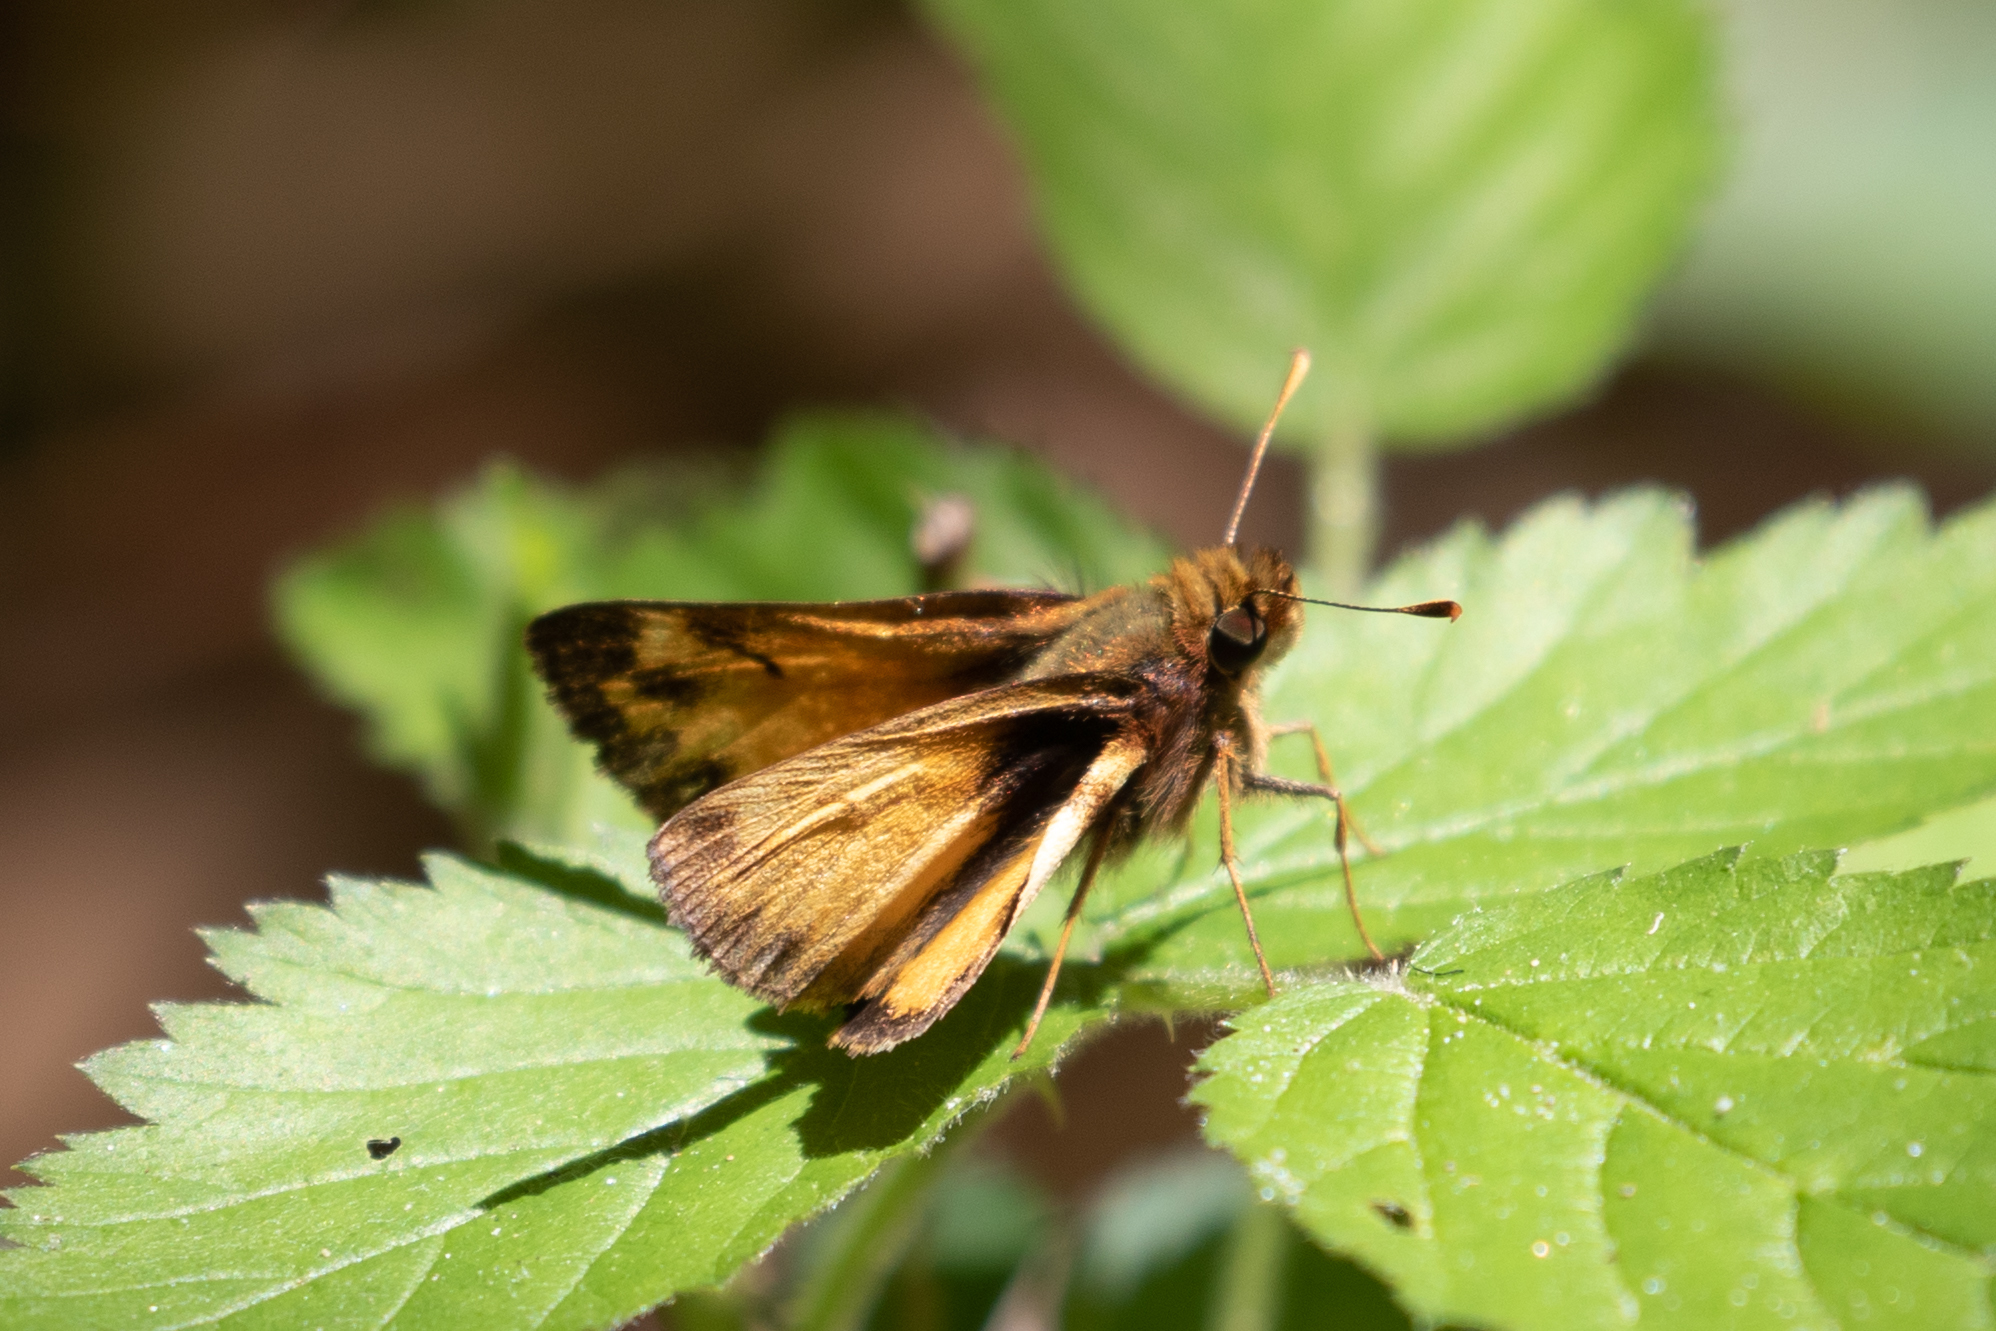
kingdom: Animalia
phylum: Arthropoda
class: Insecta
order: Lepidoptera
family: Hesperiidae
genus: Lon
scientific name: Lon zabulon
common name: Zabulon skipper
